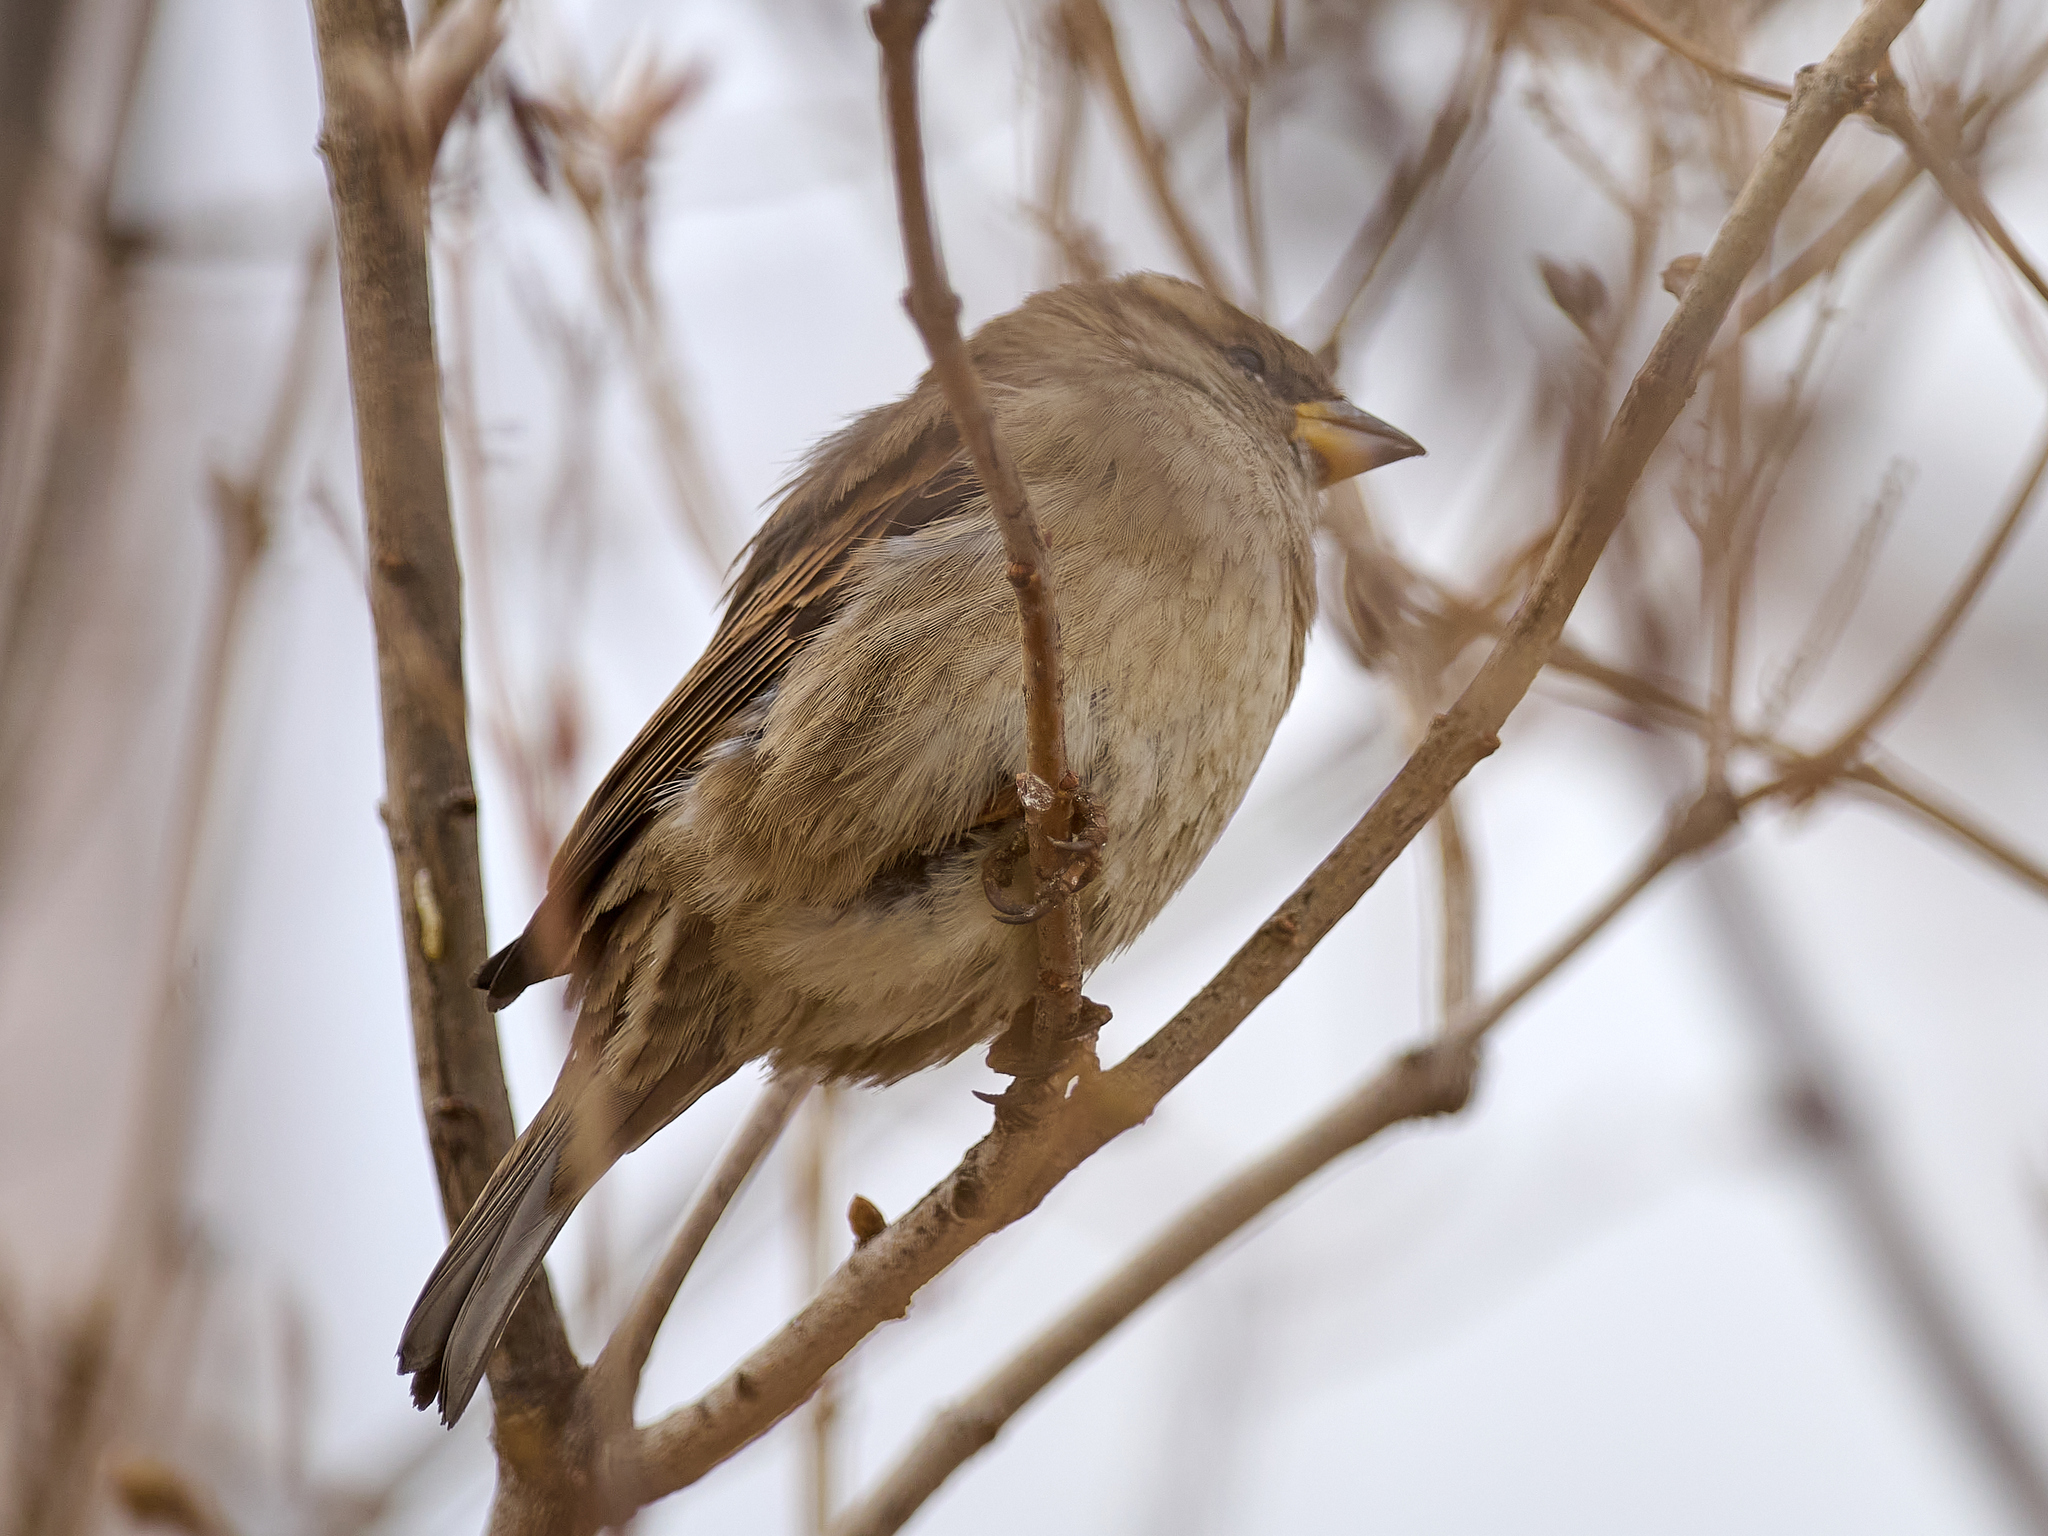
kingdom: Animalia
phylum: Chordata
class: Aves
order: Passeriformes
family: Passeridae
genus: Passer
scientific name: Passer domesticus
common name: House sparrow
